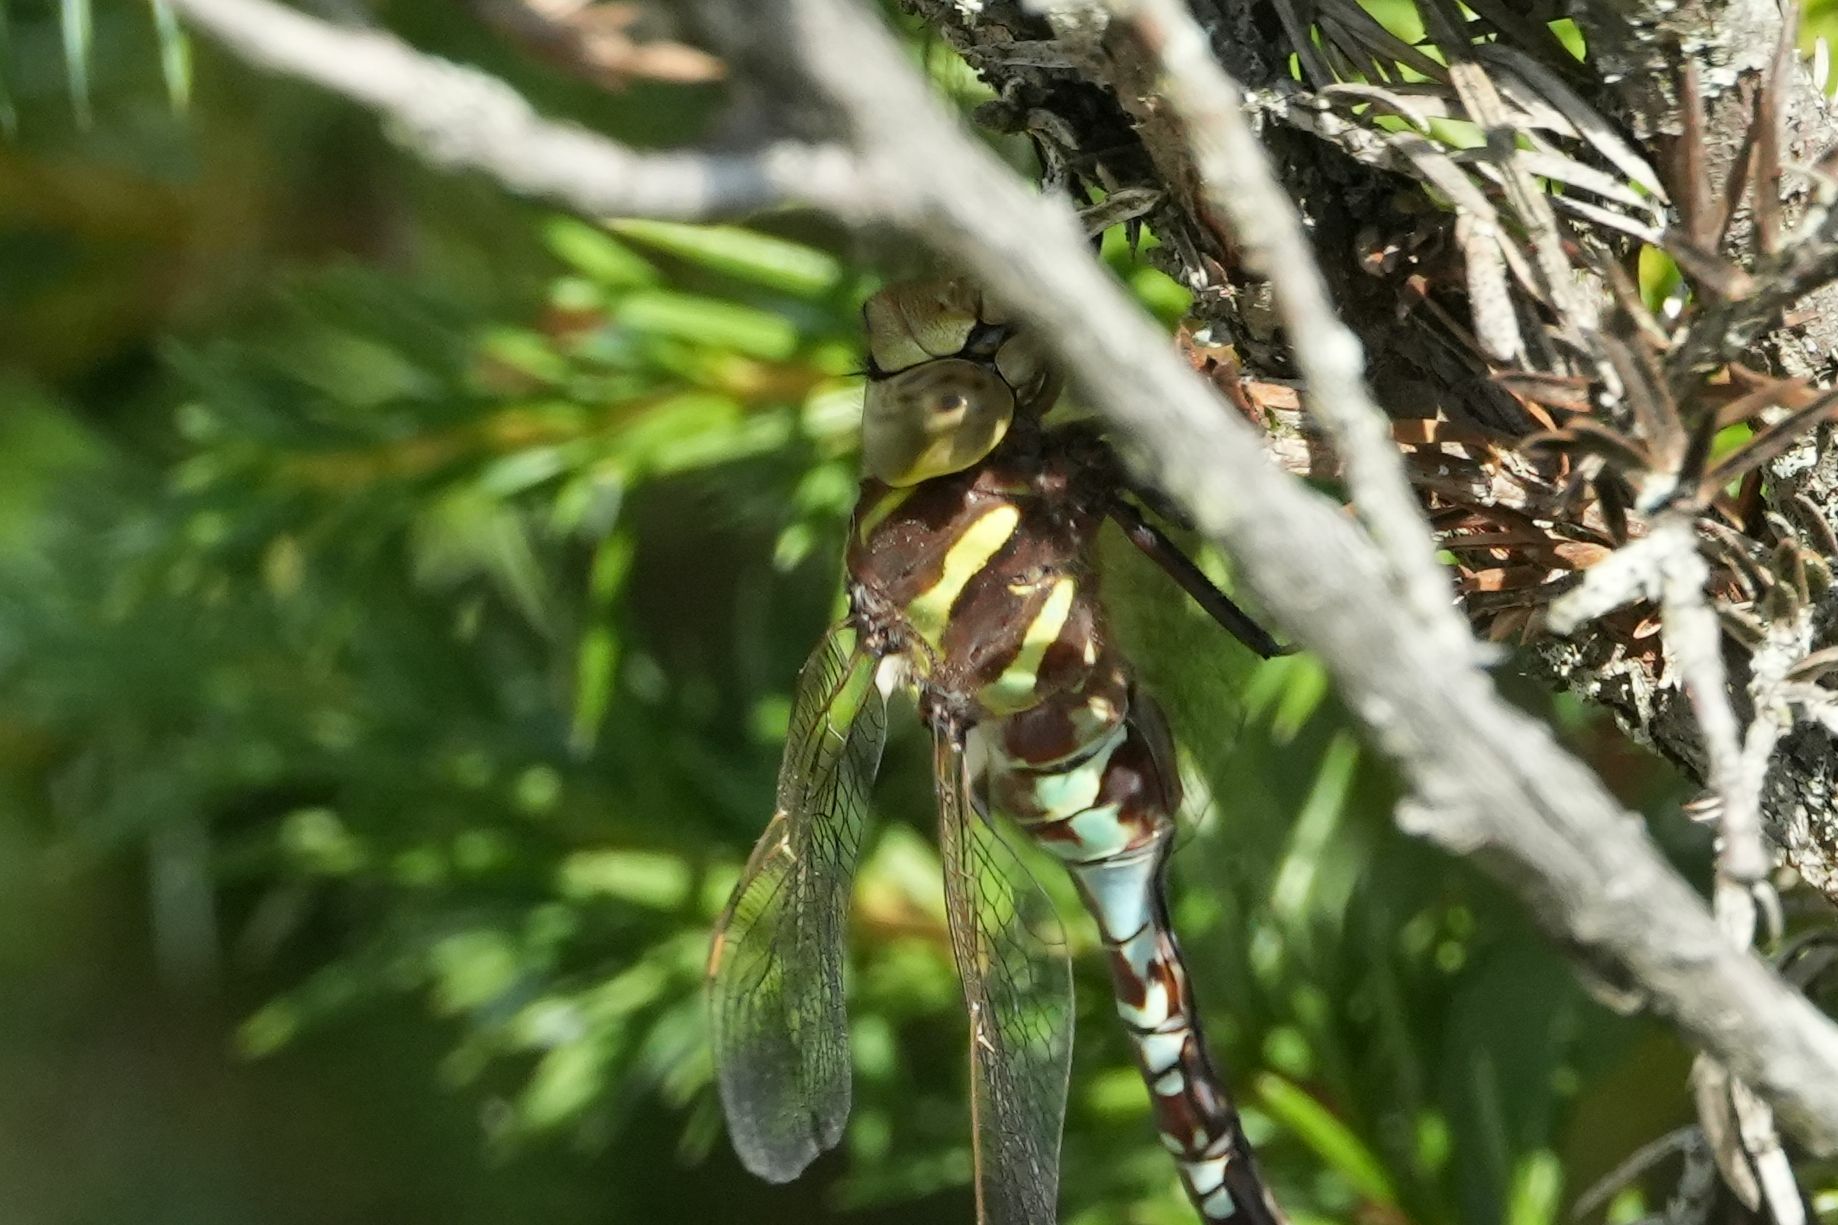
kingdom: Animalia
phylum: Arthropoda
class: Insecta
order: Odonata
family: Aeshnidae
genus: Aeshna
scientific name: Aeshna constricta
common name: Lance-tipped darner
